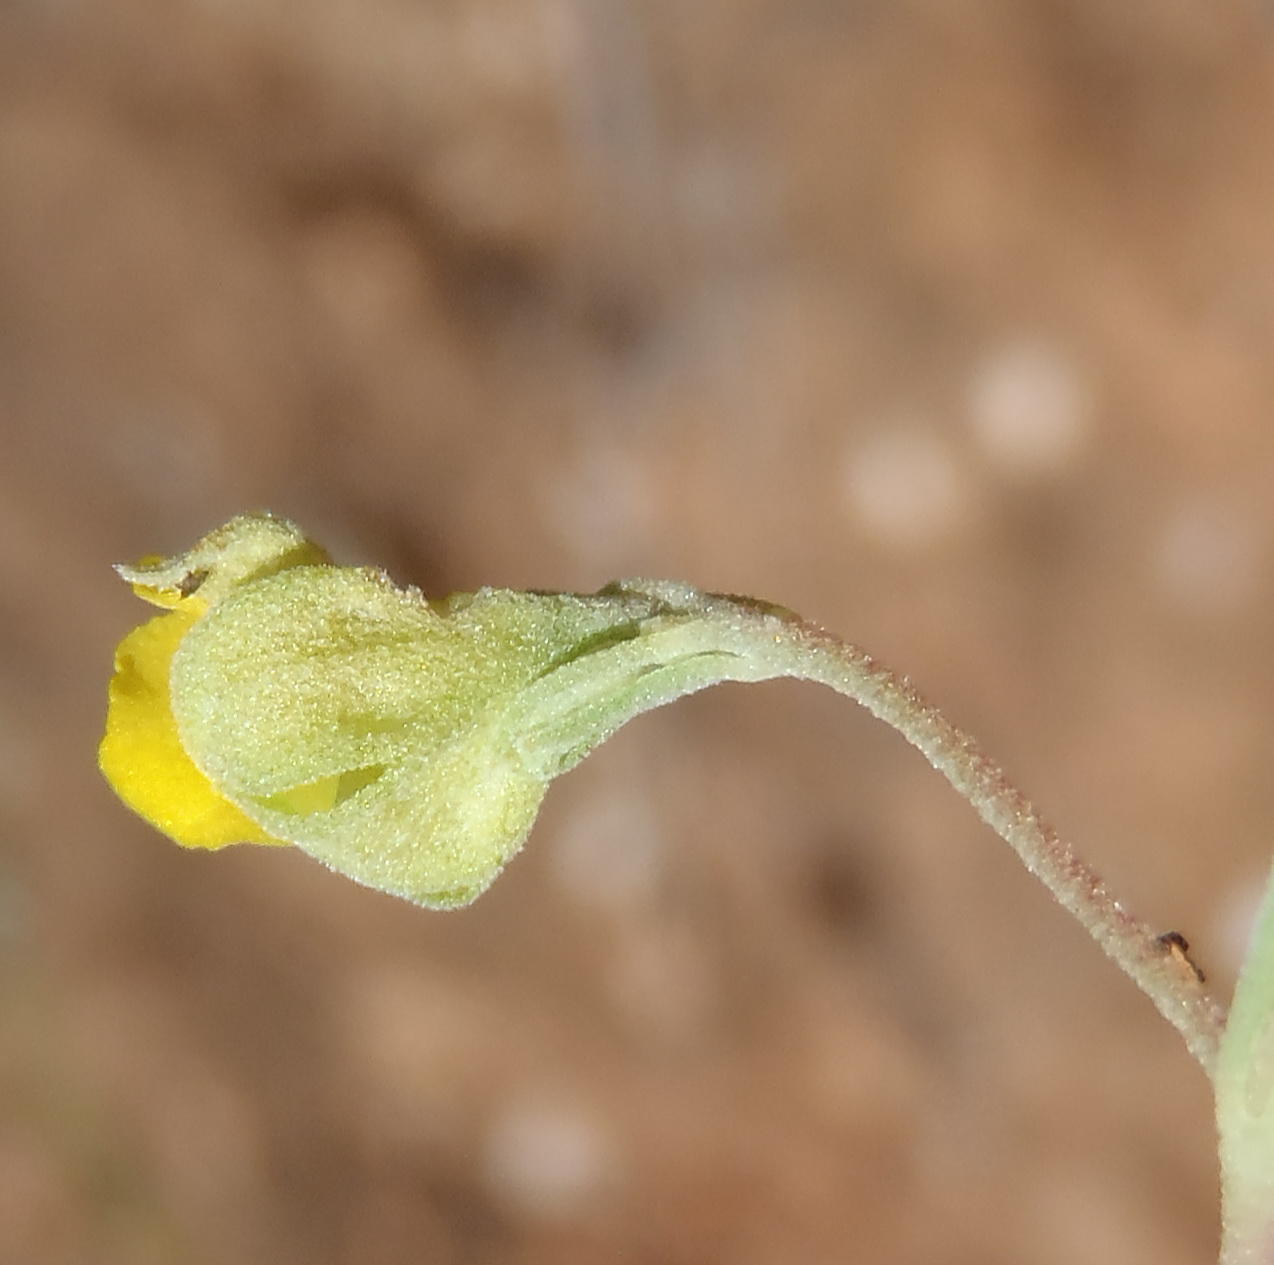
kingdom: Plantae
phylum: Tracheophyta
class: Magnoliopsida
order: Malvales
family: Malvaceae
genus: Hermannia
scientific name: Hermannia lavandulifolia
